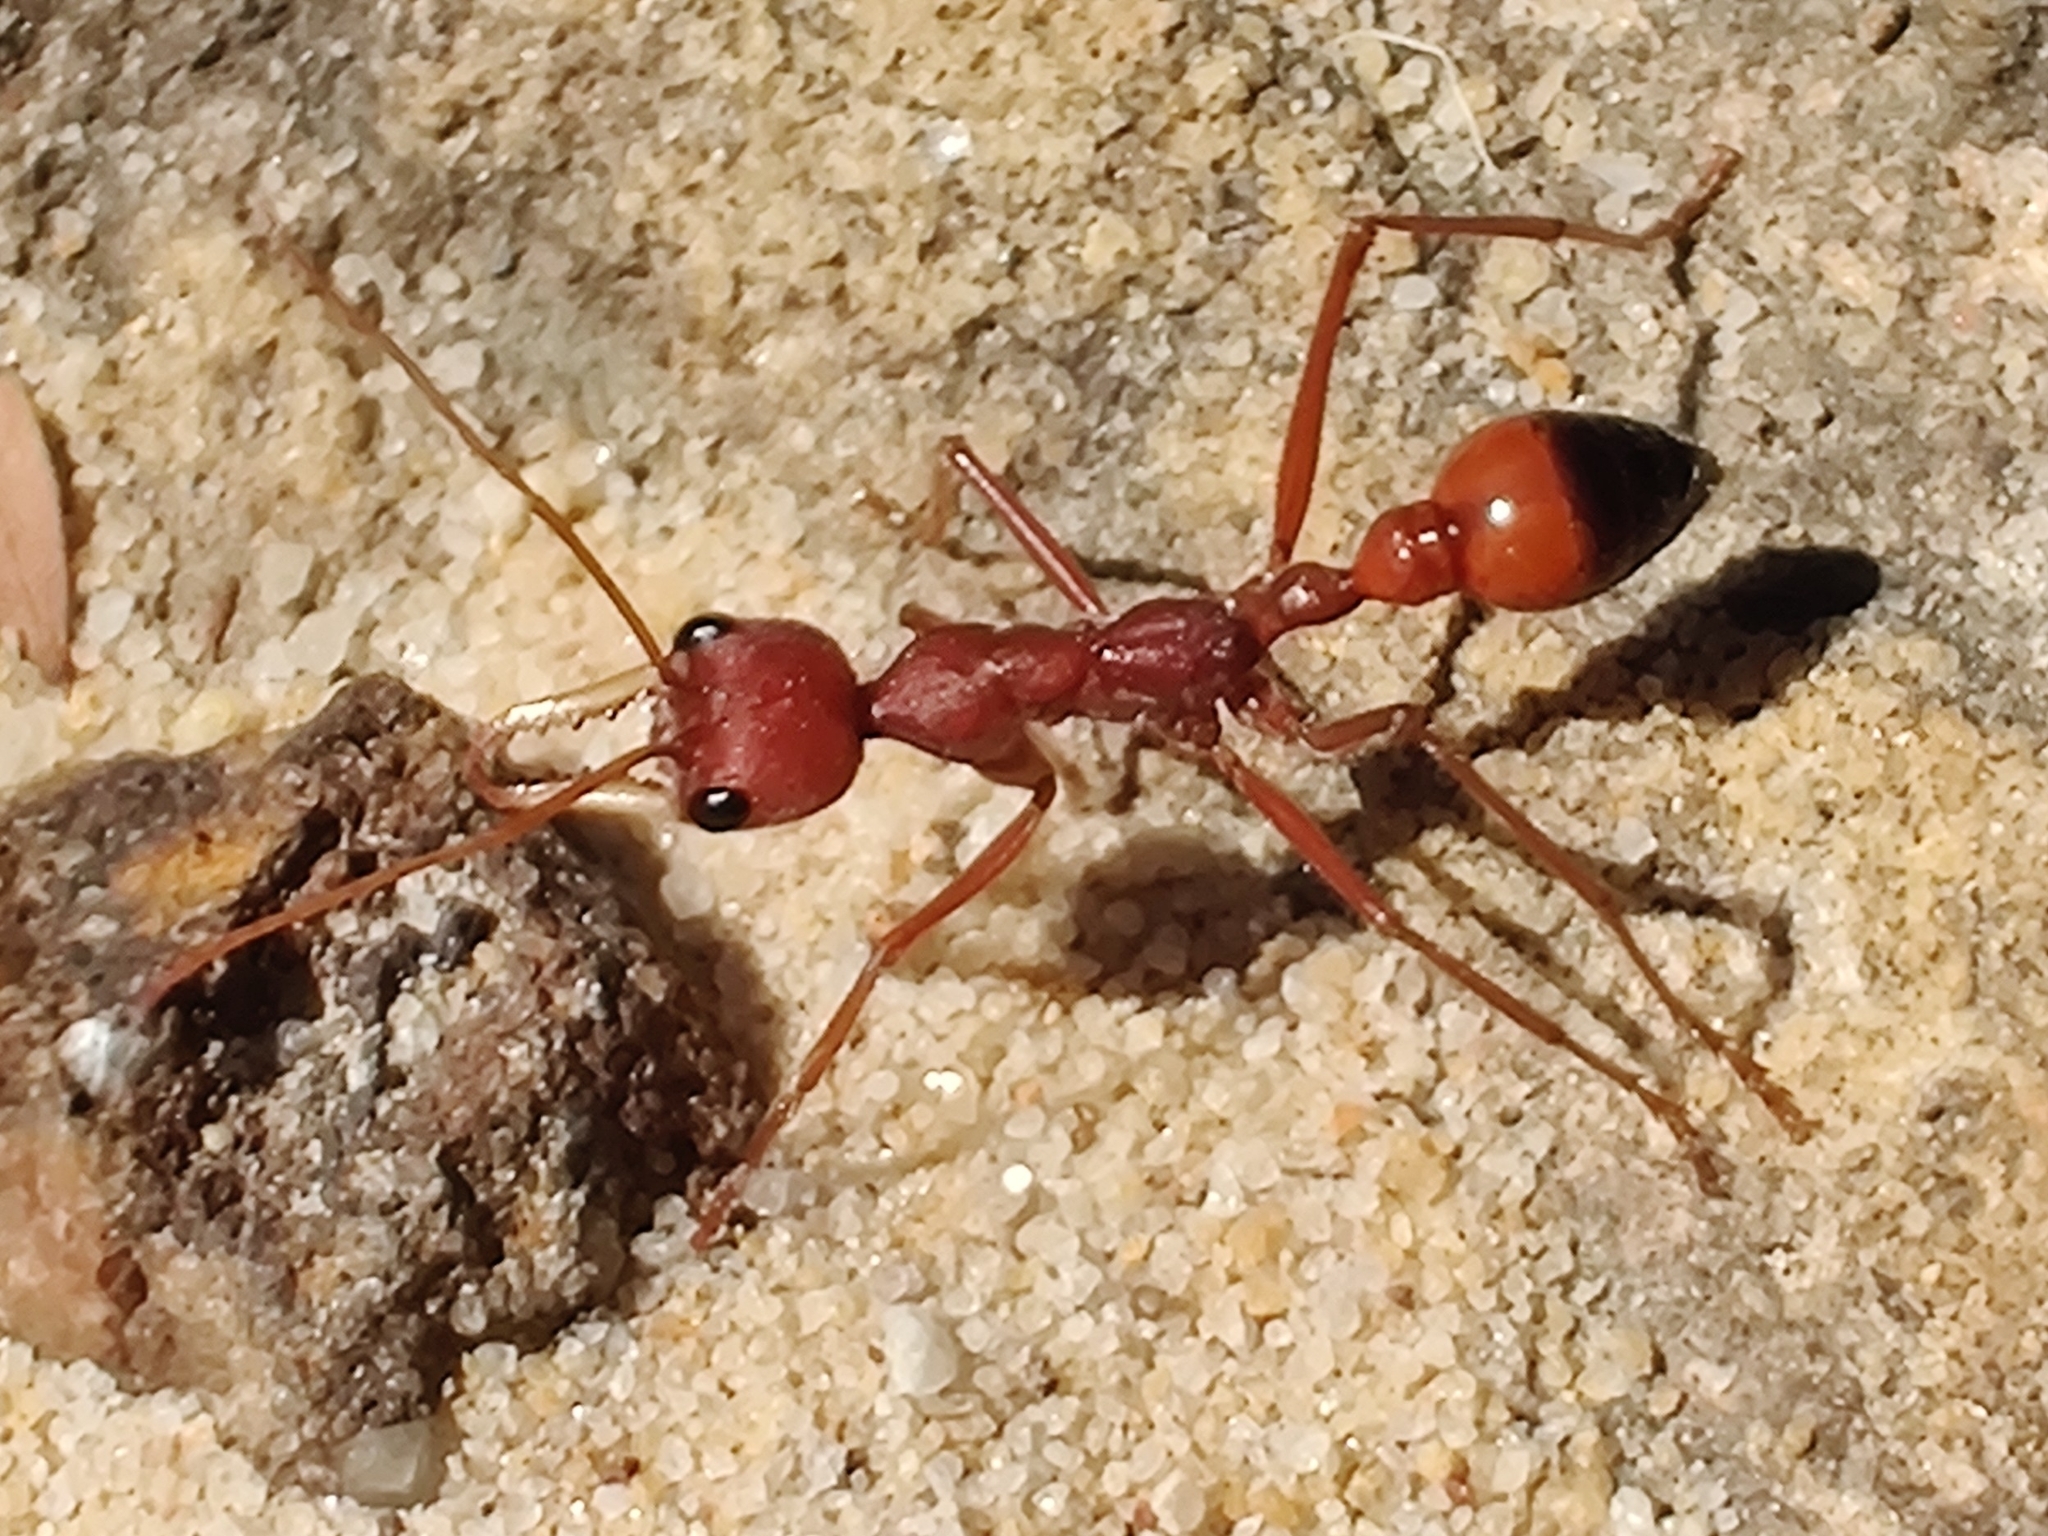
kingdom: Animalia
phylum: Arthropoda
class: Insecta
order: Hymenoptera
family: Formicidae
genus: Myrmecia
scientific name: Myrmecia gulosa
